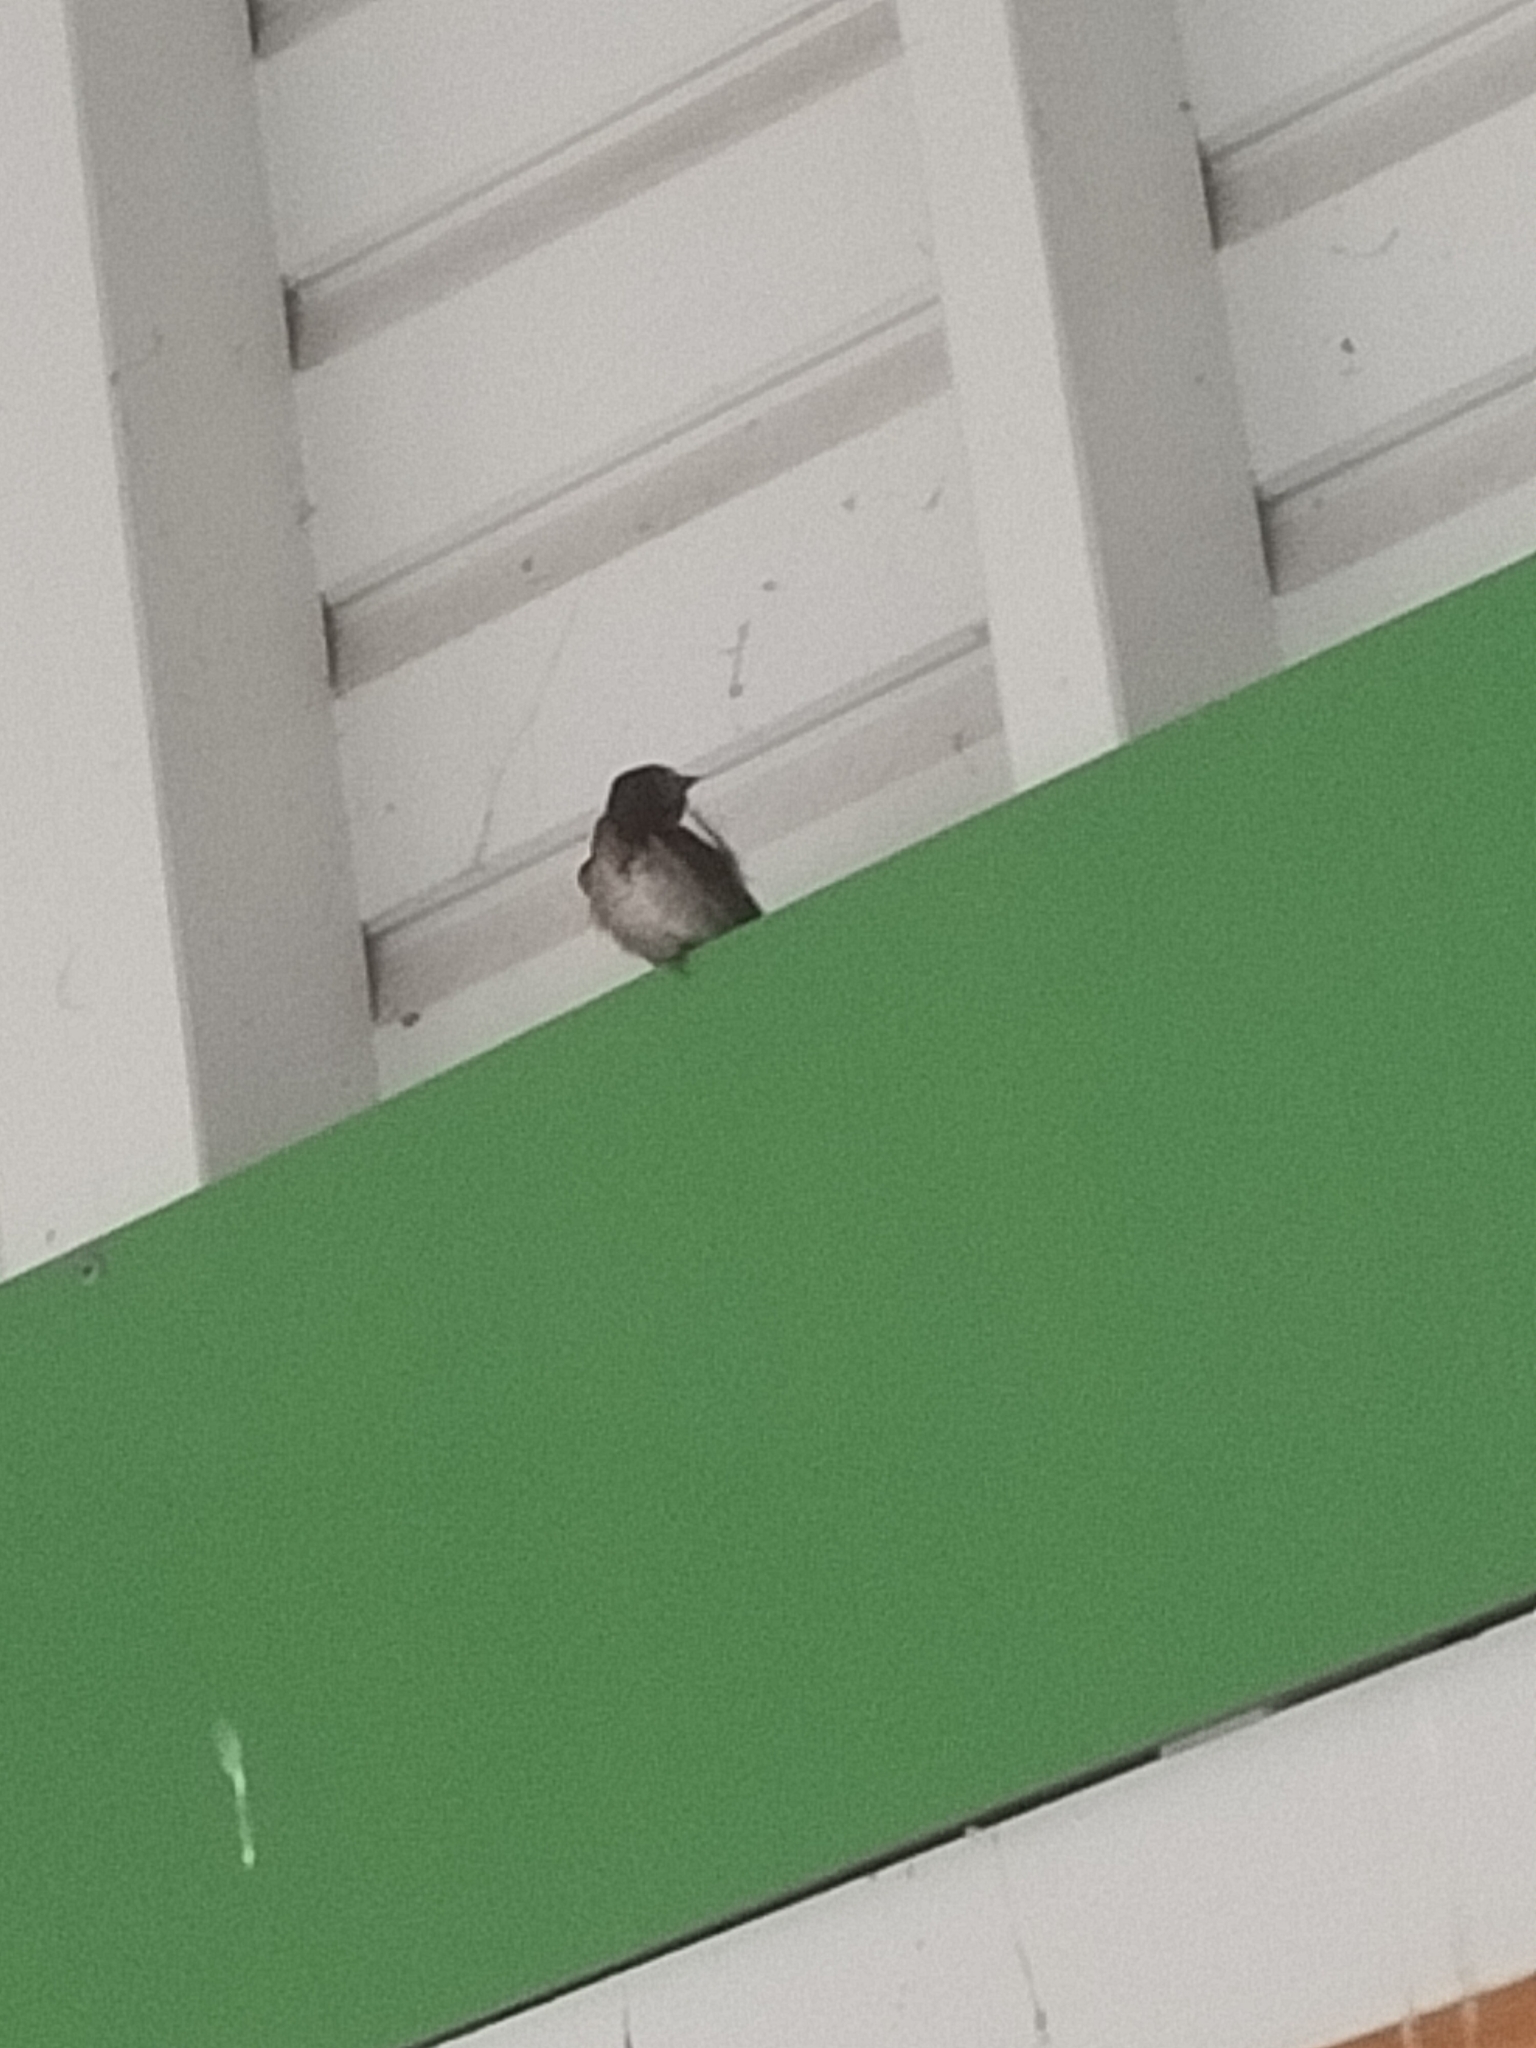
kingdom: Animalia
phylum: Chordata
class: Aves
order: Passeriformes
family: Hirundinidae
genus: Hirundo
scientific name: Hirundo neoxena
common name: Welcome swallow
